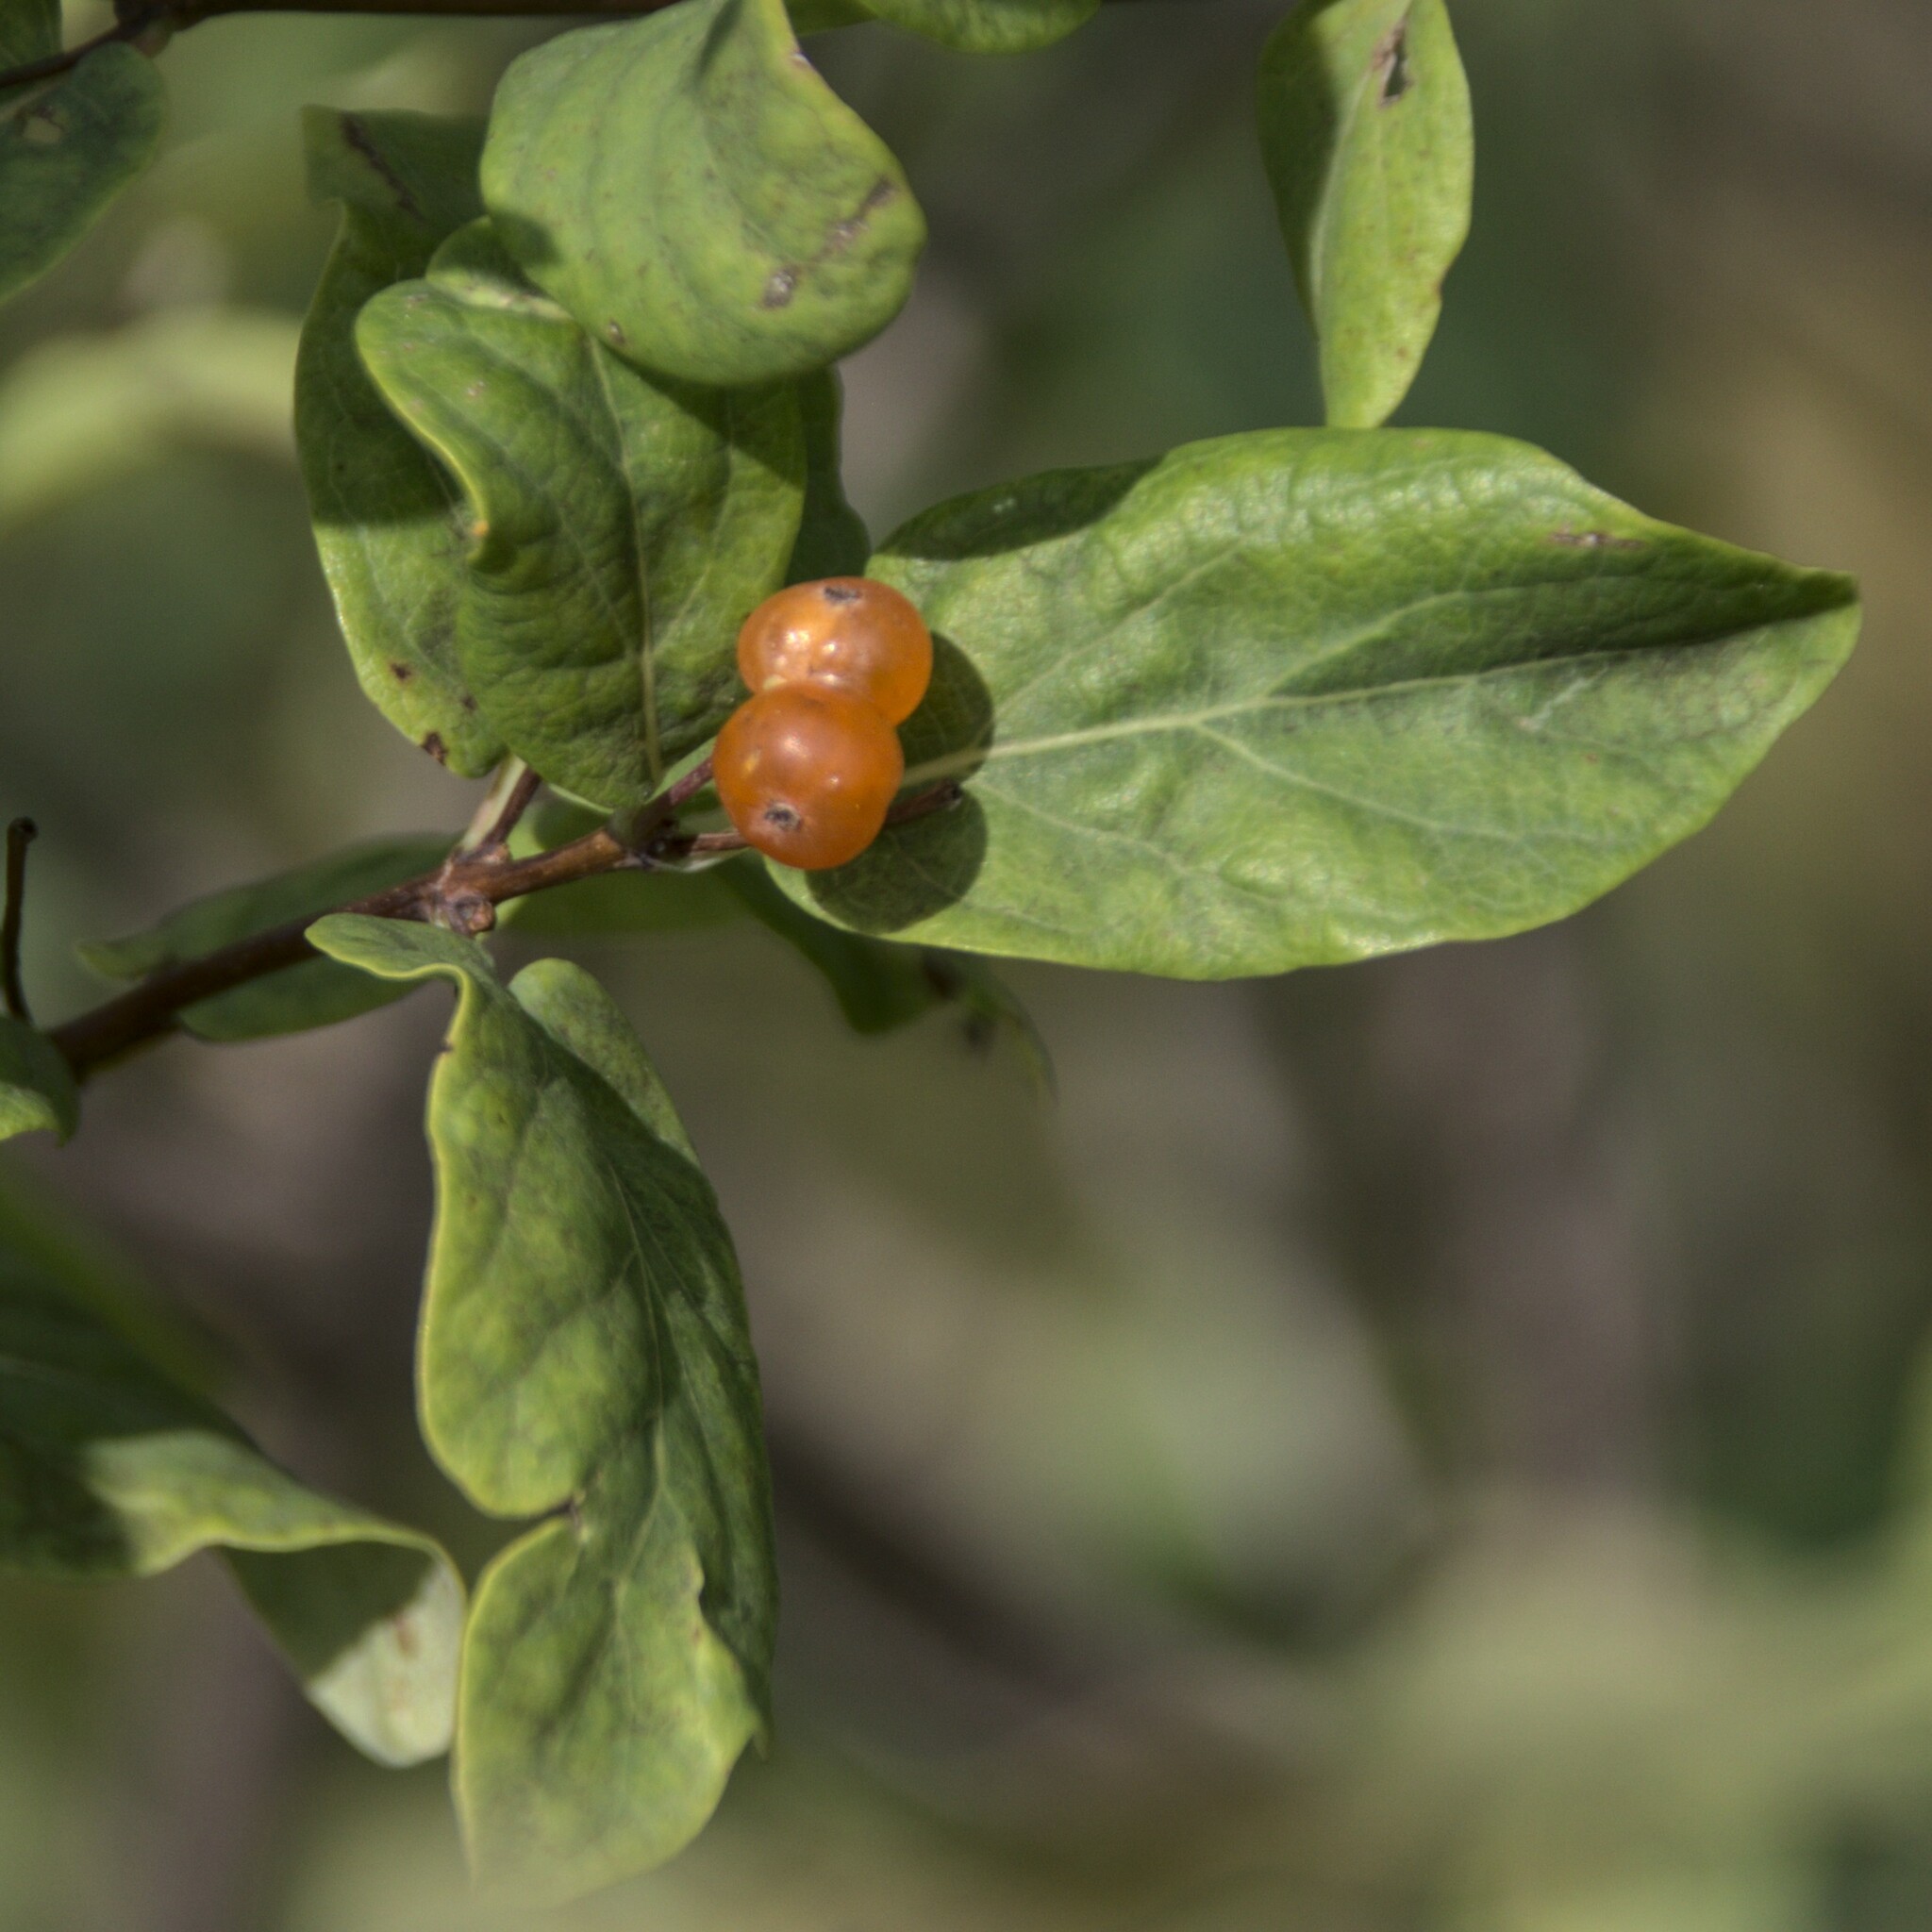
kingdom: Plantae
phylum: Tracheophyta
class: Magnoliopsida
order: Dipsacales
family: Caprifoliaceae
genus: Lonicera
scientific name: Lonicera tatarica
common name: Tatarian honeysuckle
